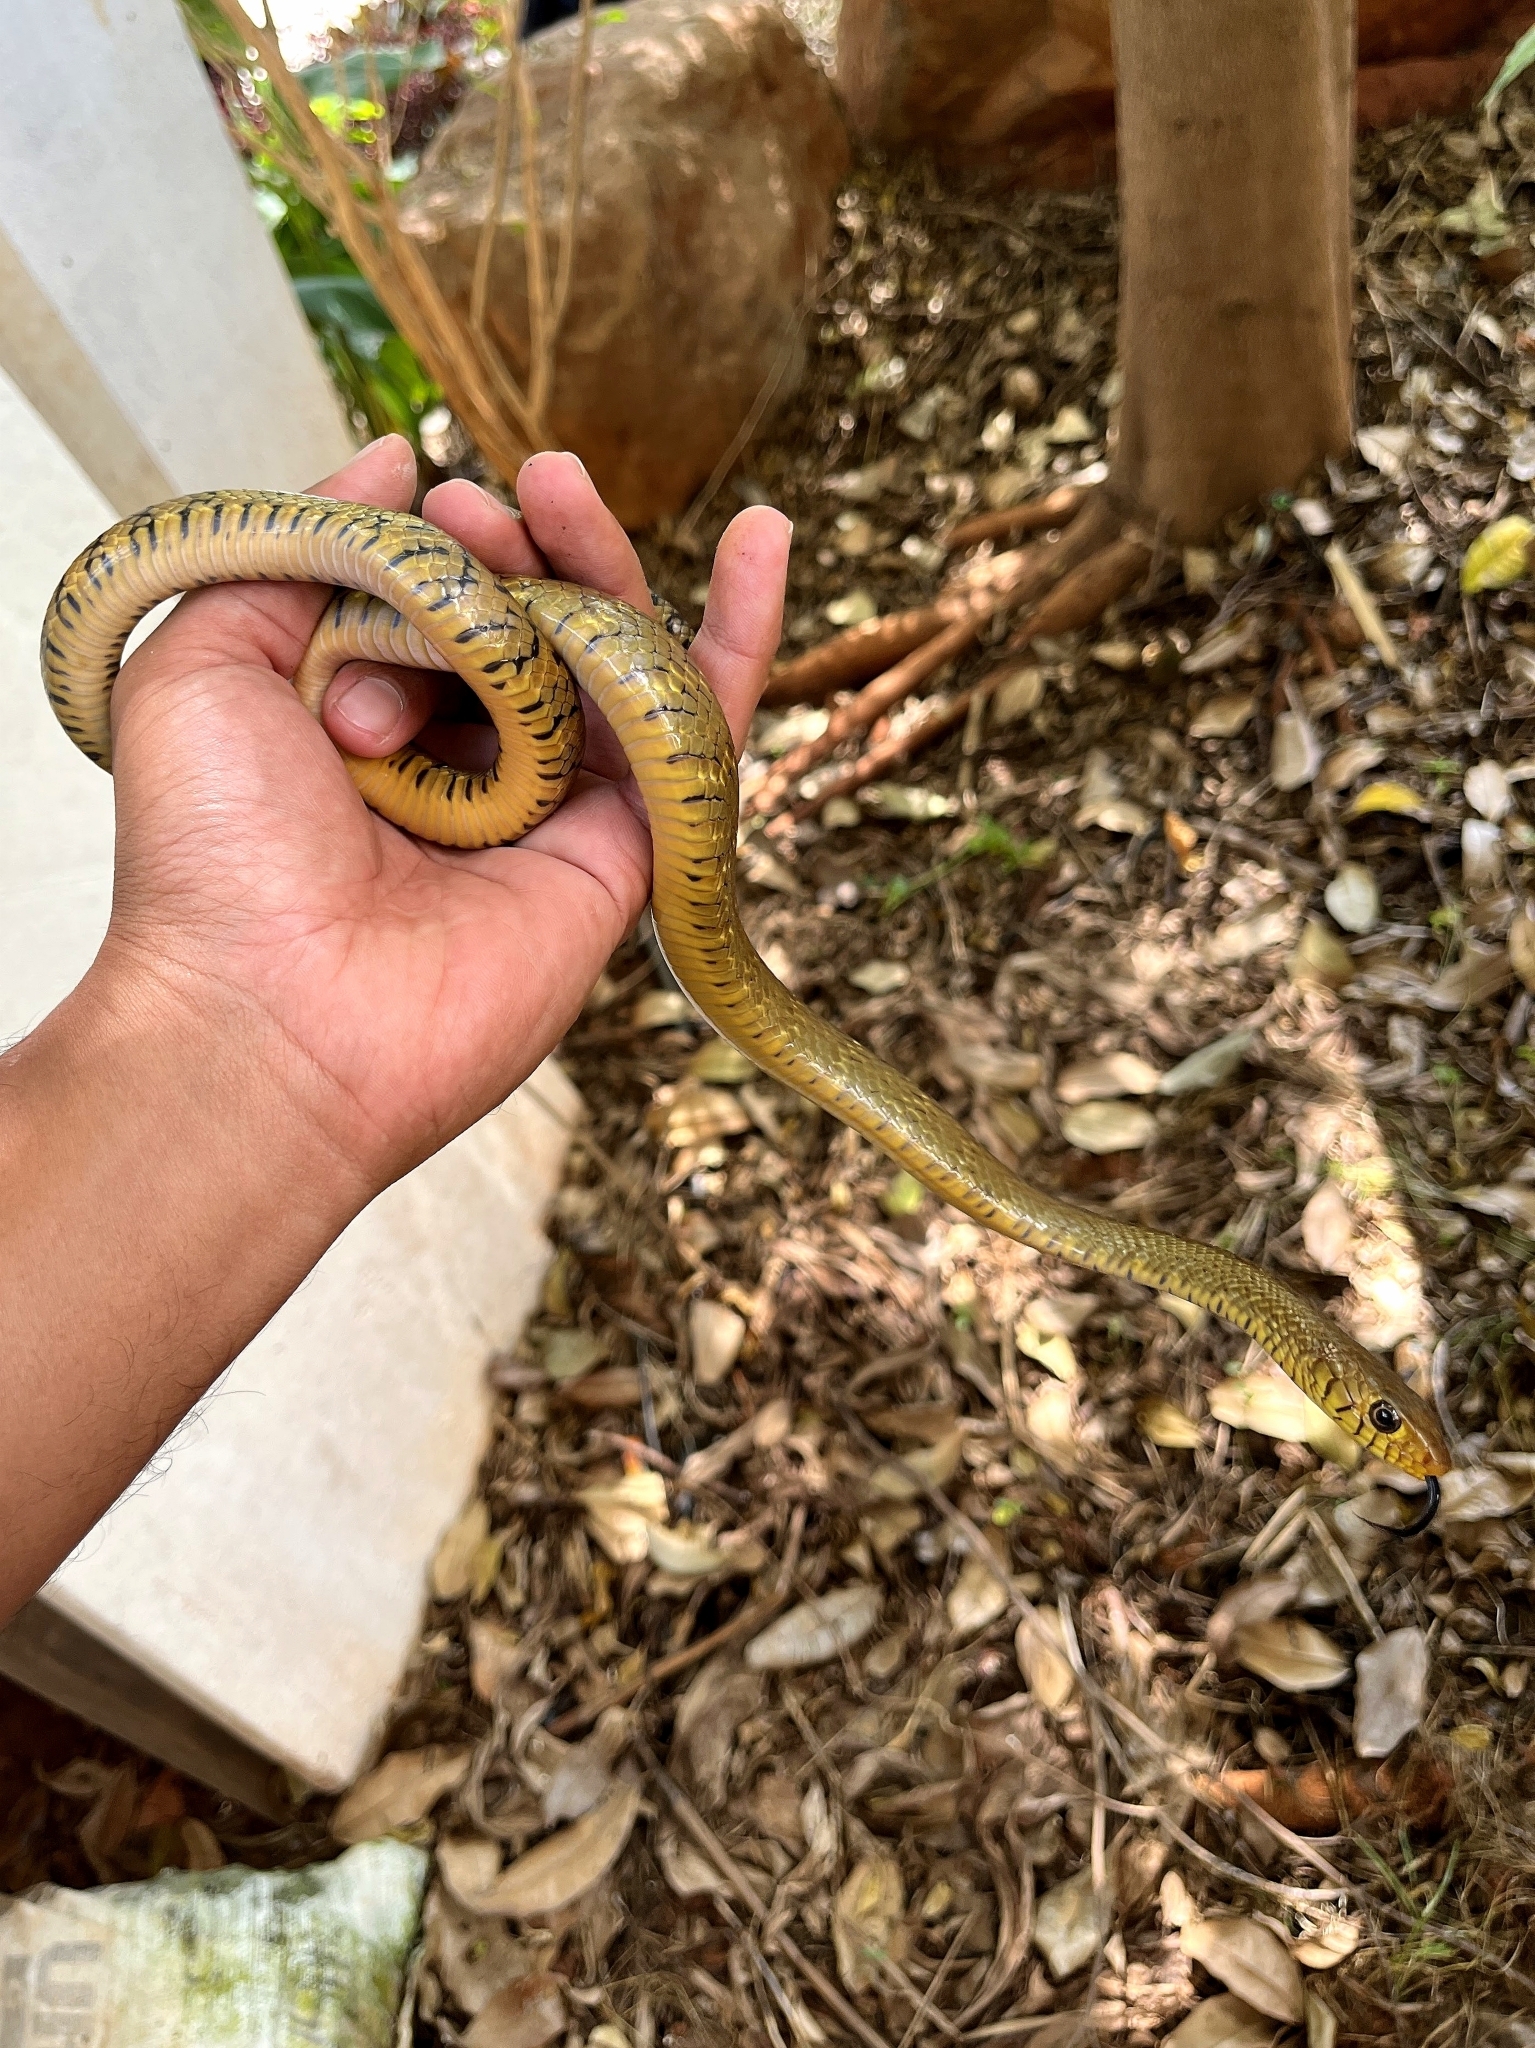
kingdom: Animalia
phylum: Chordata
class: Squamata
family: Colubridae
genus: Ptyas
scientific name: Ptyas mucosa
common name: Oriental ratsnake
